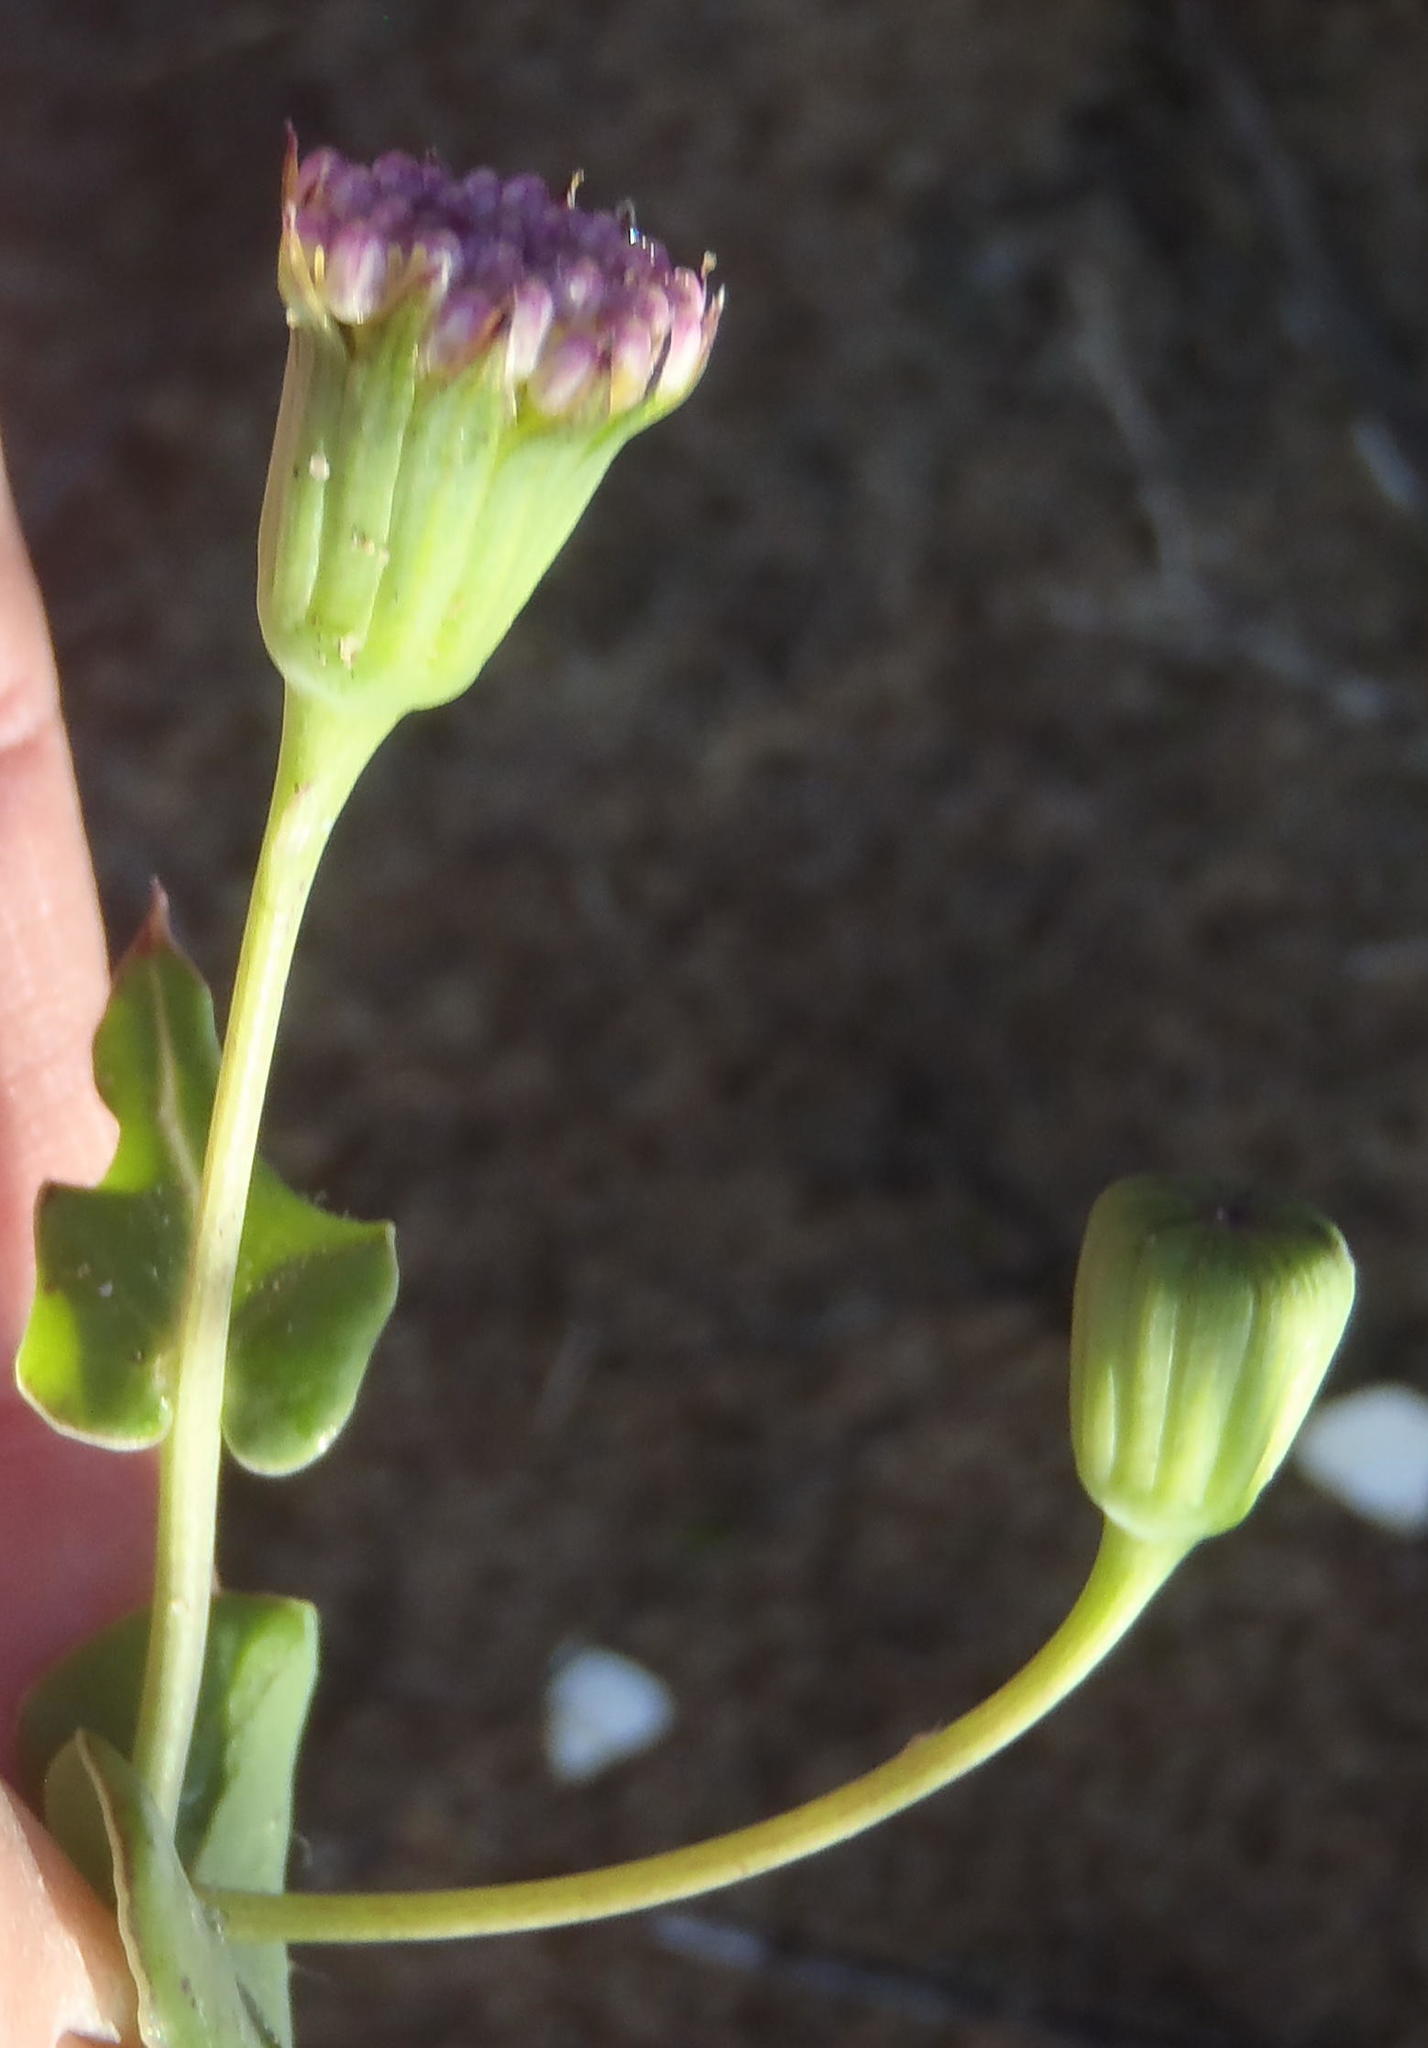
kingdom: Plantae
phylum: Tracheophyta
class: Magnoliopsida
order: Asterales
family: Asteraceae
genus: Othonna
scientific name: Othonna undulosa
